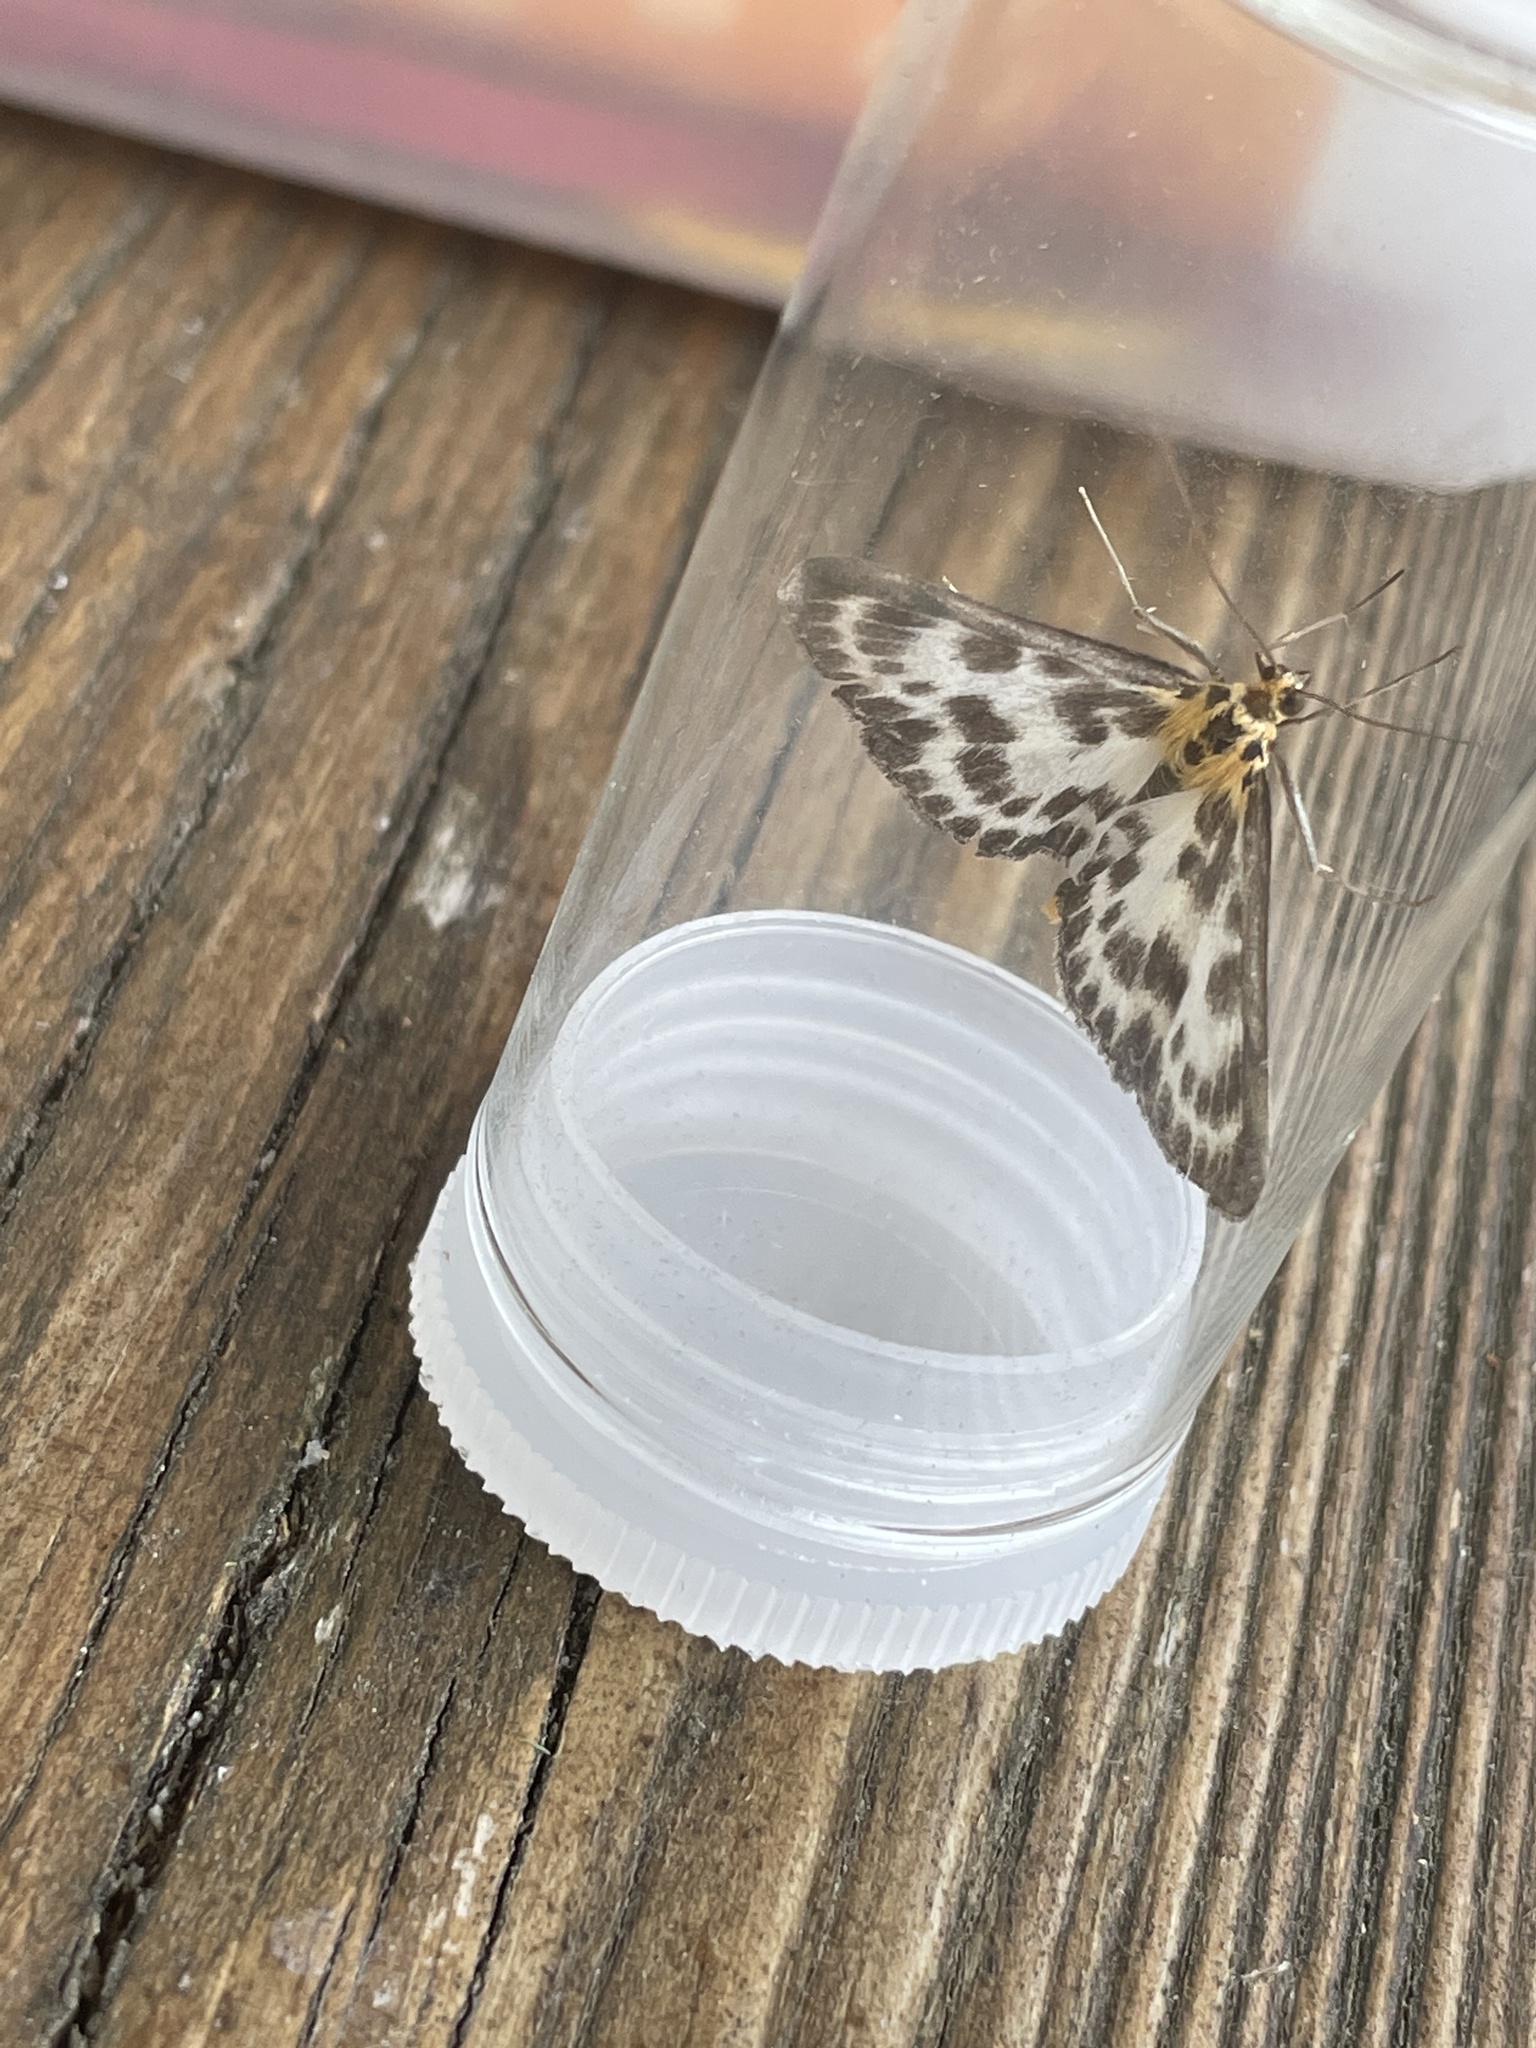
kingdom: Animalia
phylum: Arthropoda
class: Insecta
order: Lepidoptera
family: Crambidae
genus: Anania
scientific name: Anania hortulata
